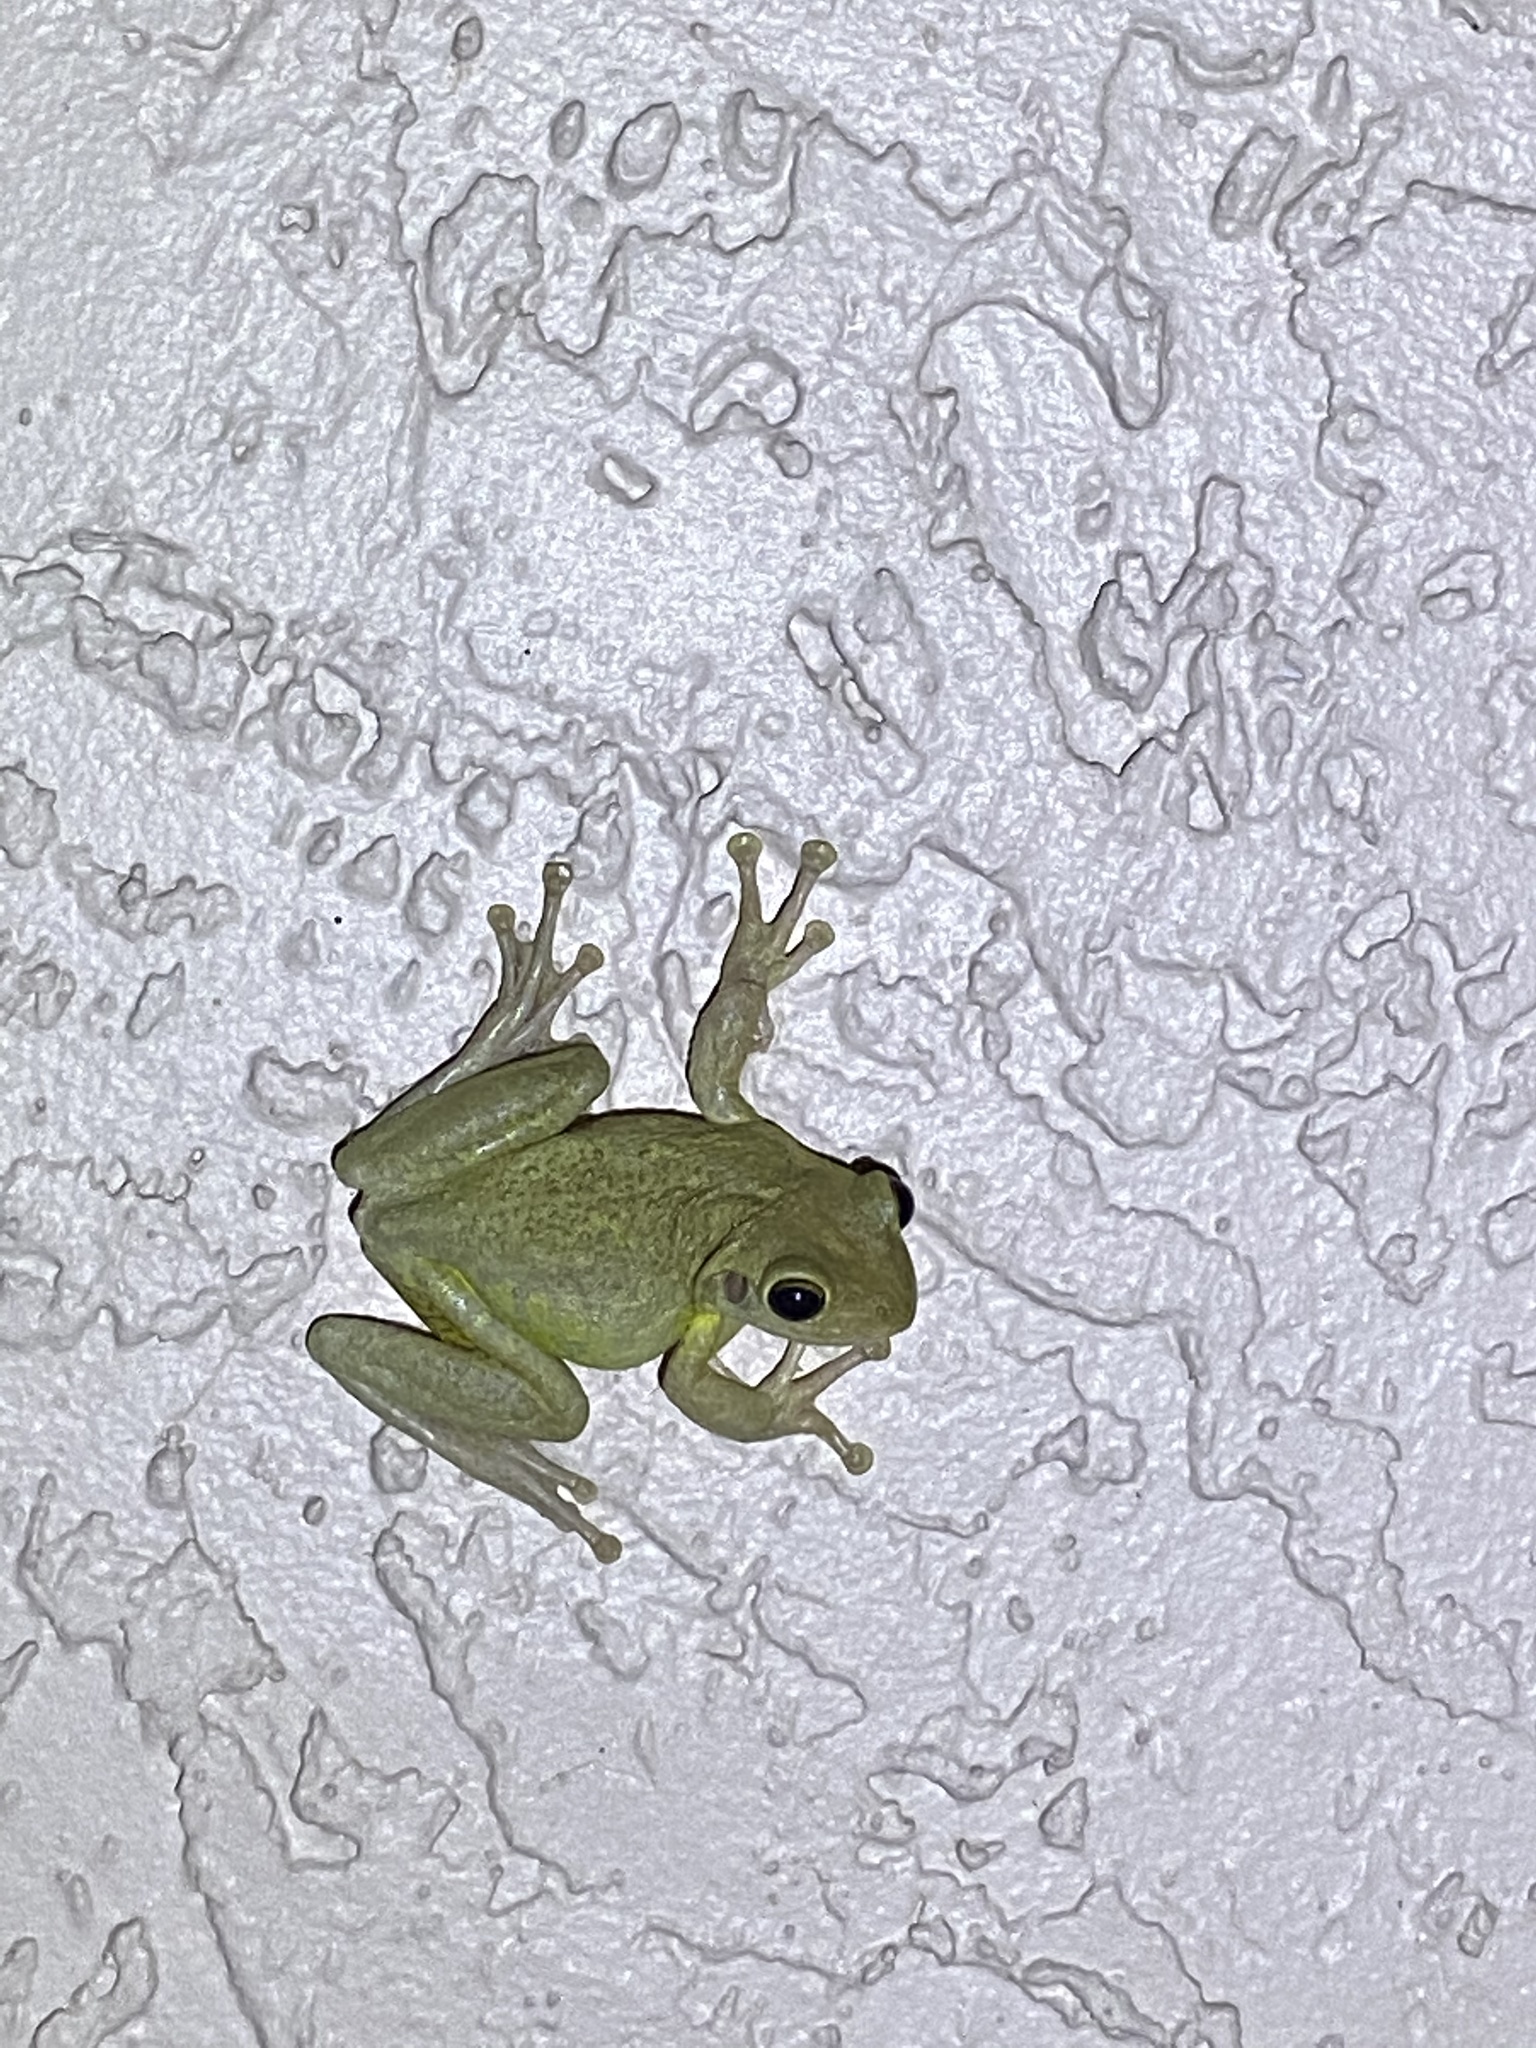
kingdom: Animalia
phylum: Chordata
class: Amphibia
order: Anura
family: Hylidae
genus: Osteopilus
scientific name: Osteopilus septentrionalis
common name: Cuban treefrog
